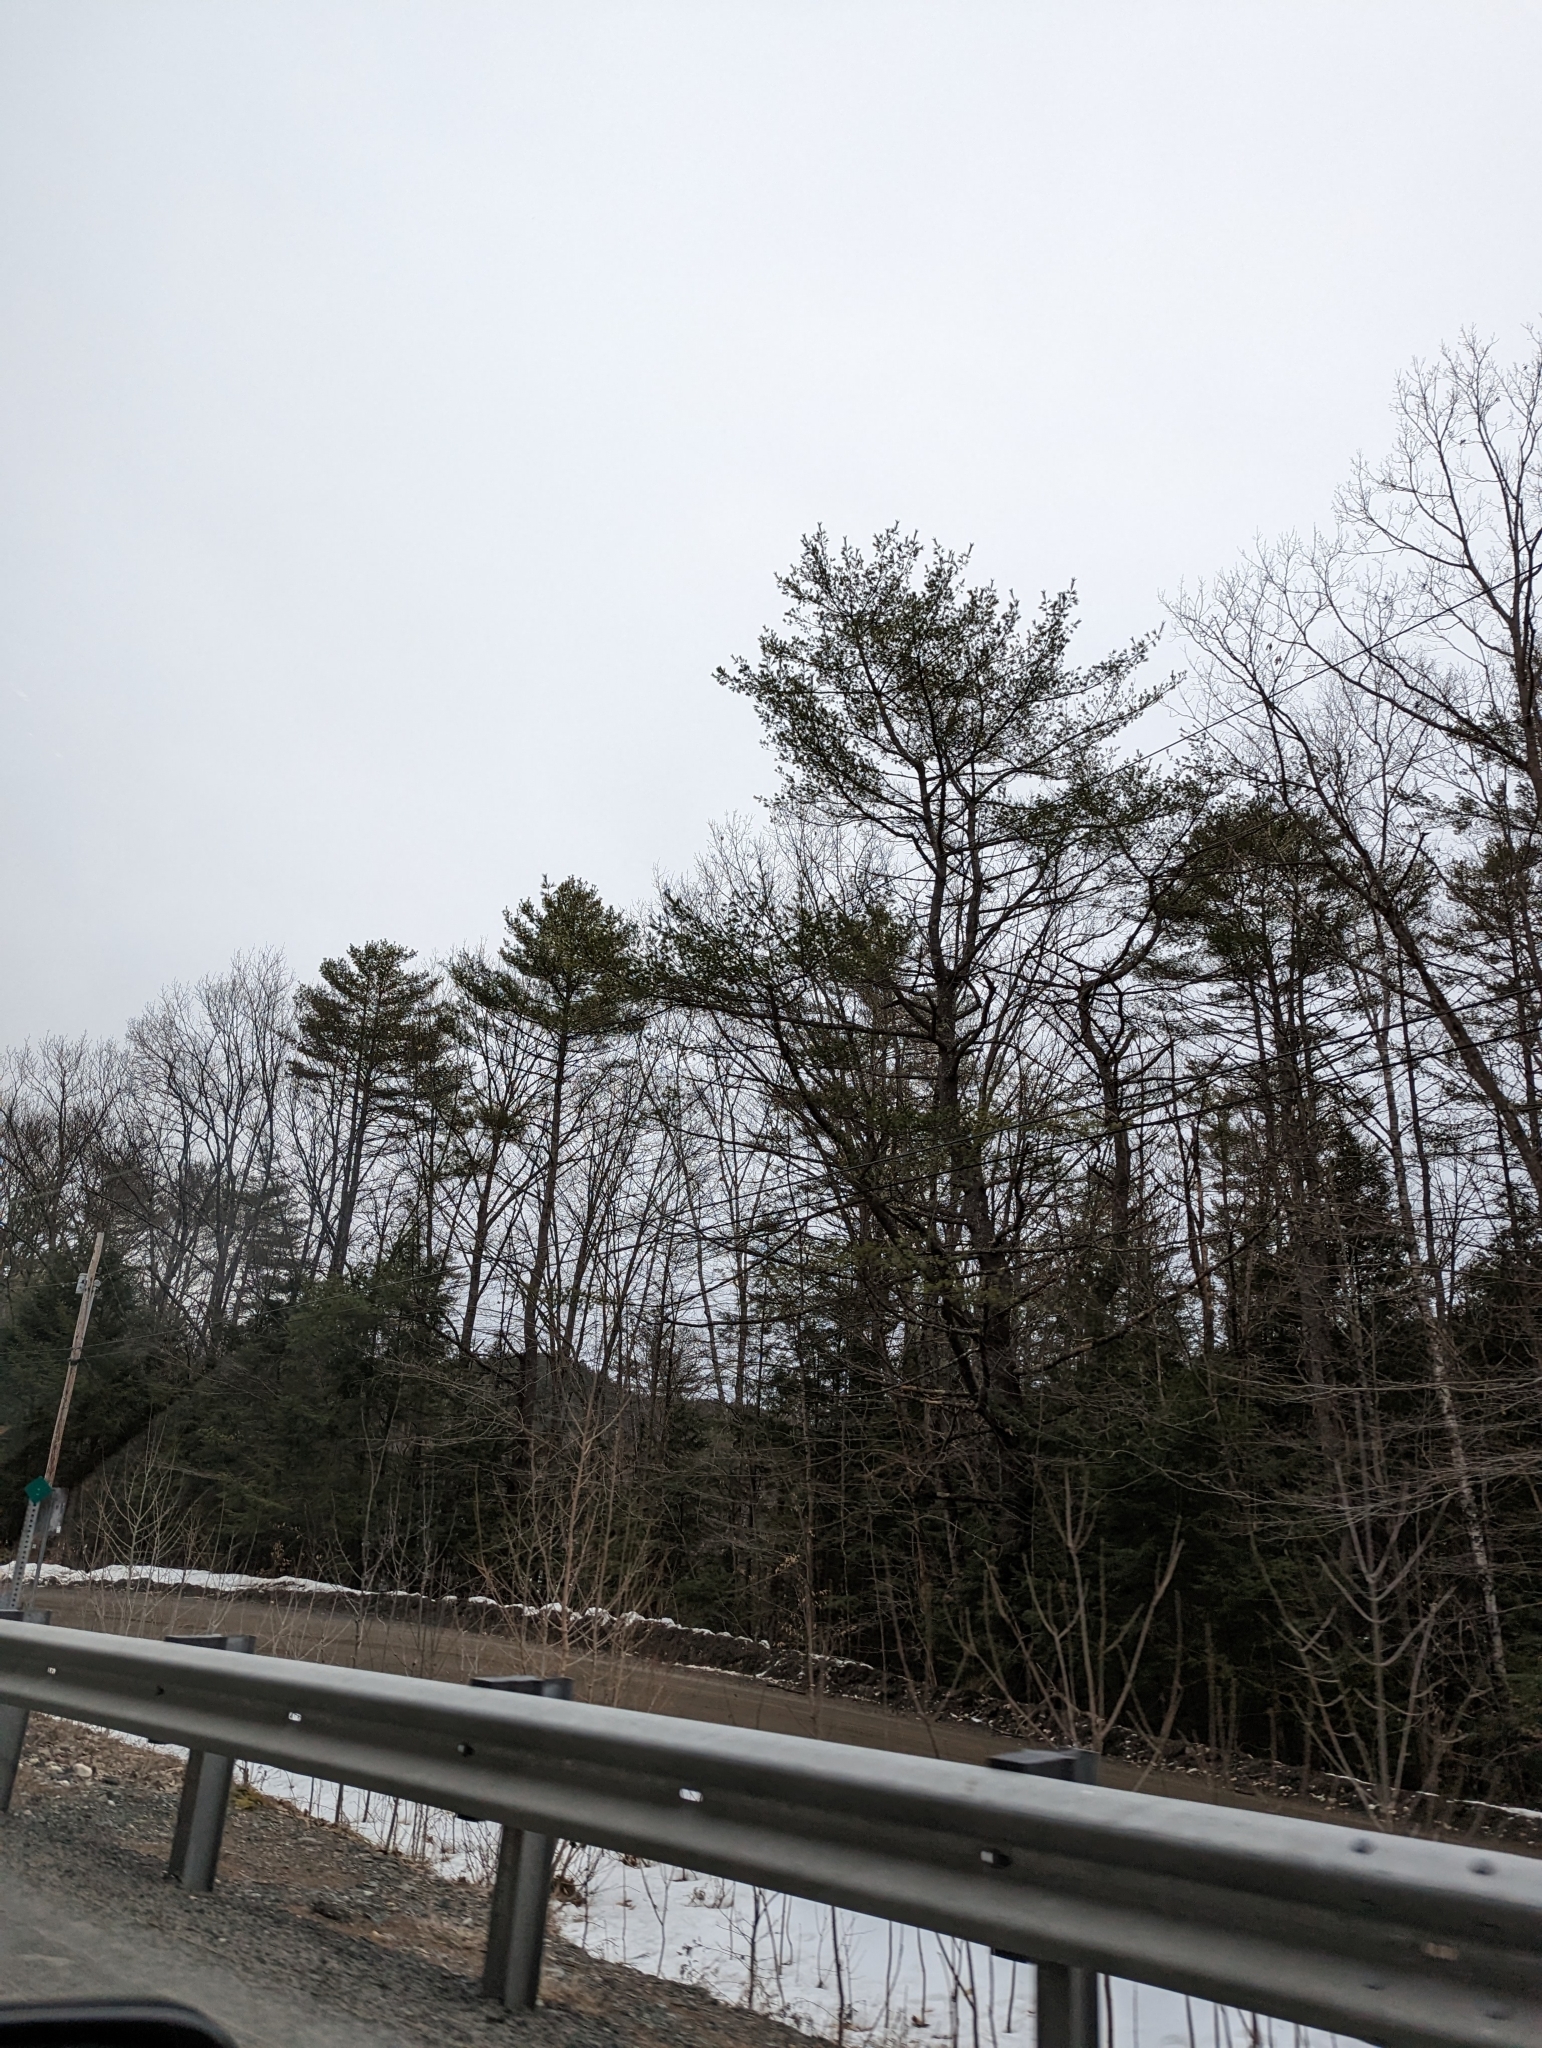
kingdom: Plantae
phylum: Tracheophyta
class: Pinopsida
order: Pinales
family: Pinaceae
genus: Pinus
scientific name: Pinus strobus
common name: Weymouth pine
